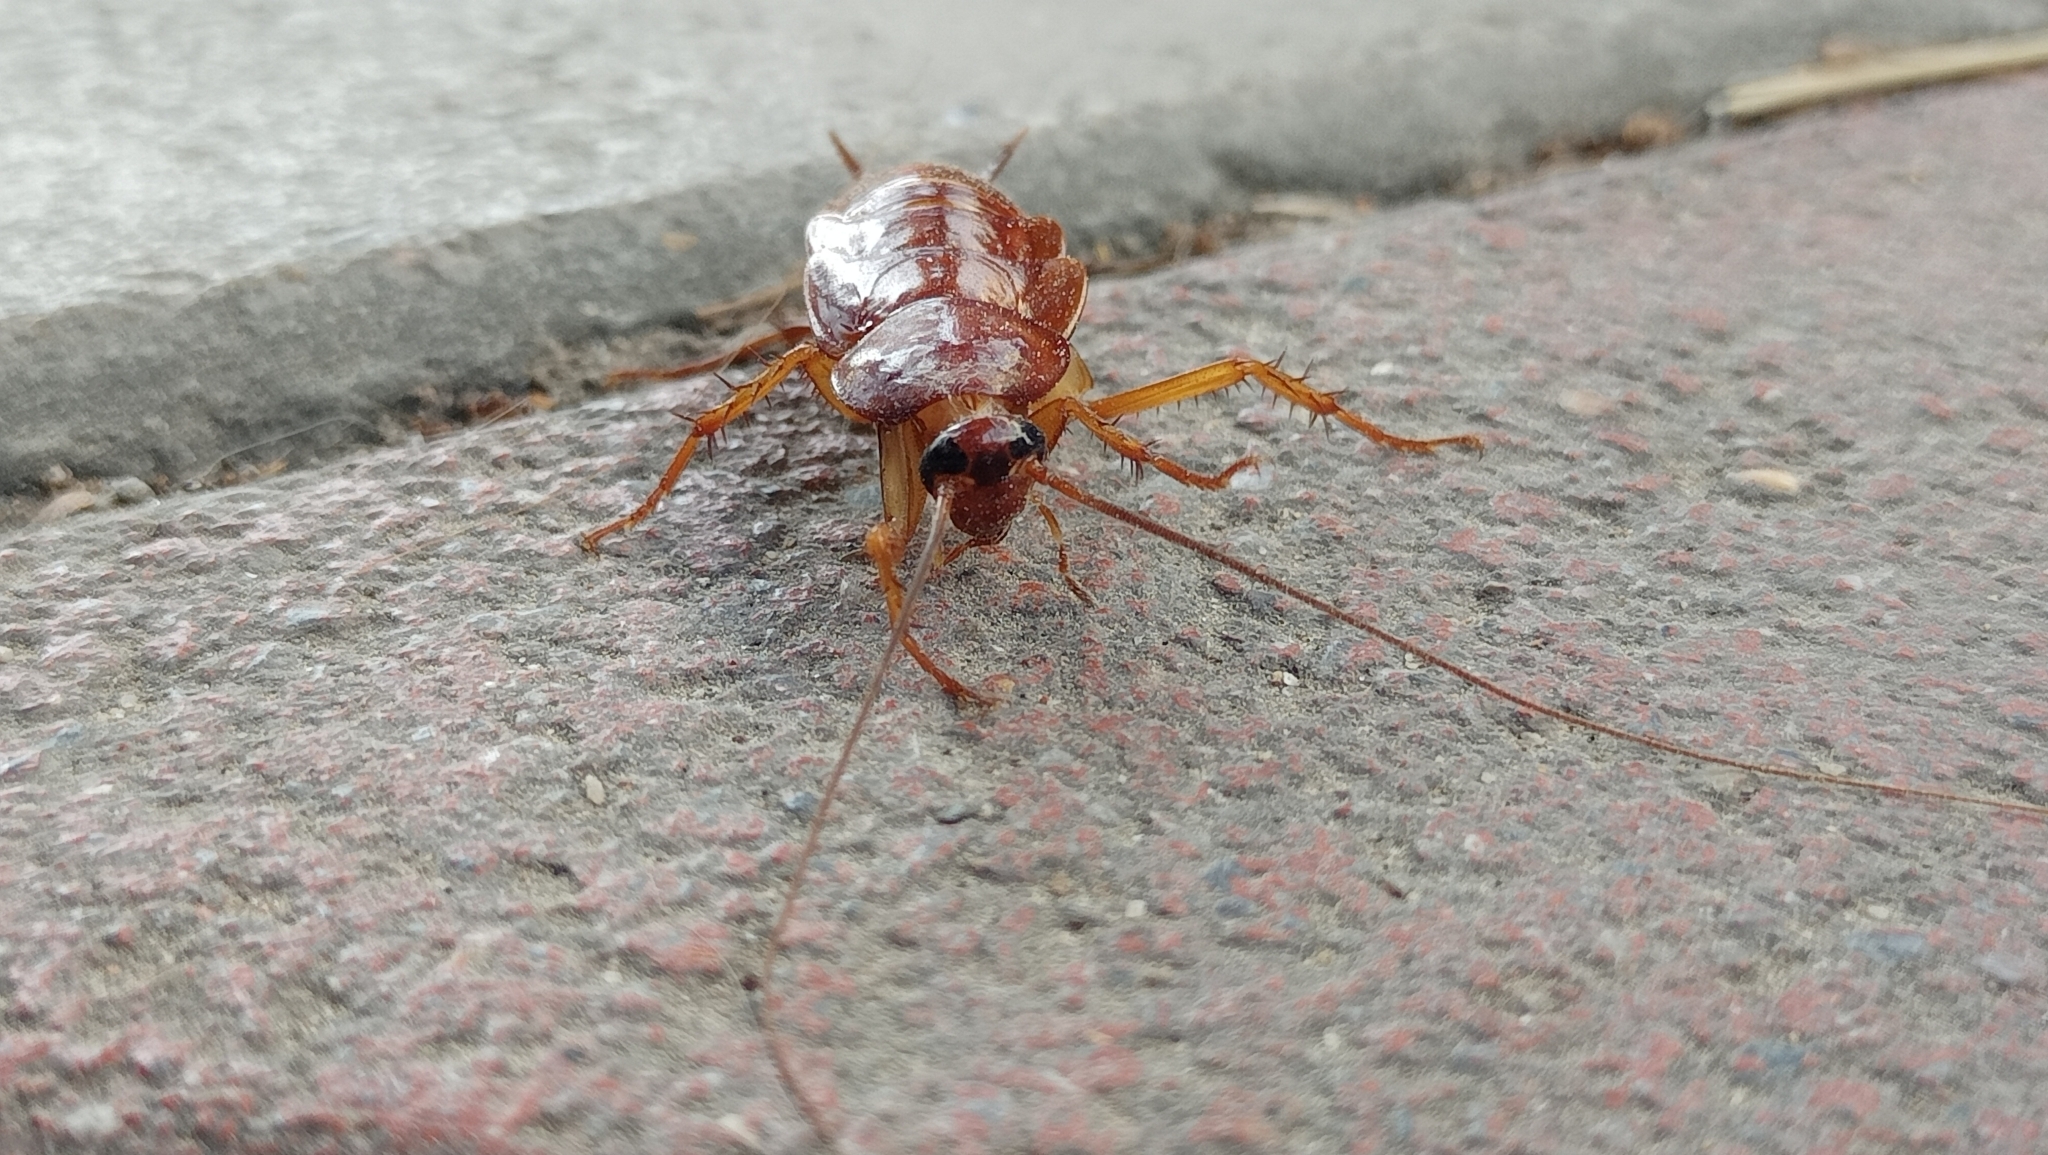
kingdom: Animalia
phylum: Arthropoda
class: Insecta
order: Blattodea
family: Blattidae
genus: Periplaneta
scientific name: Periplaneta americana
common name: American cockroach
